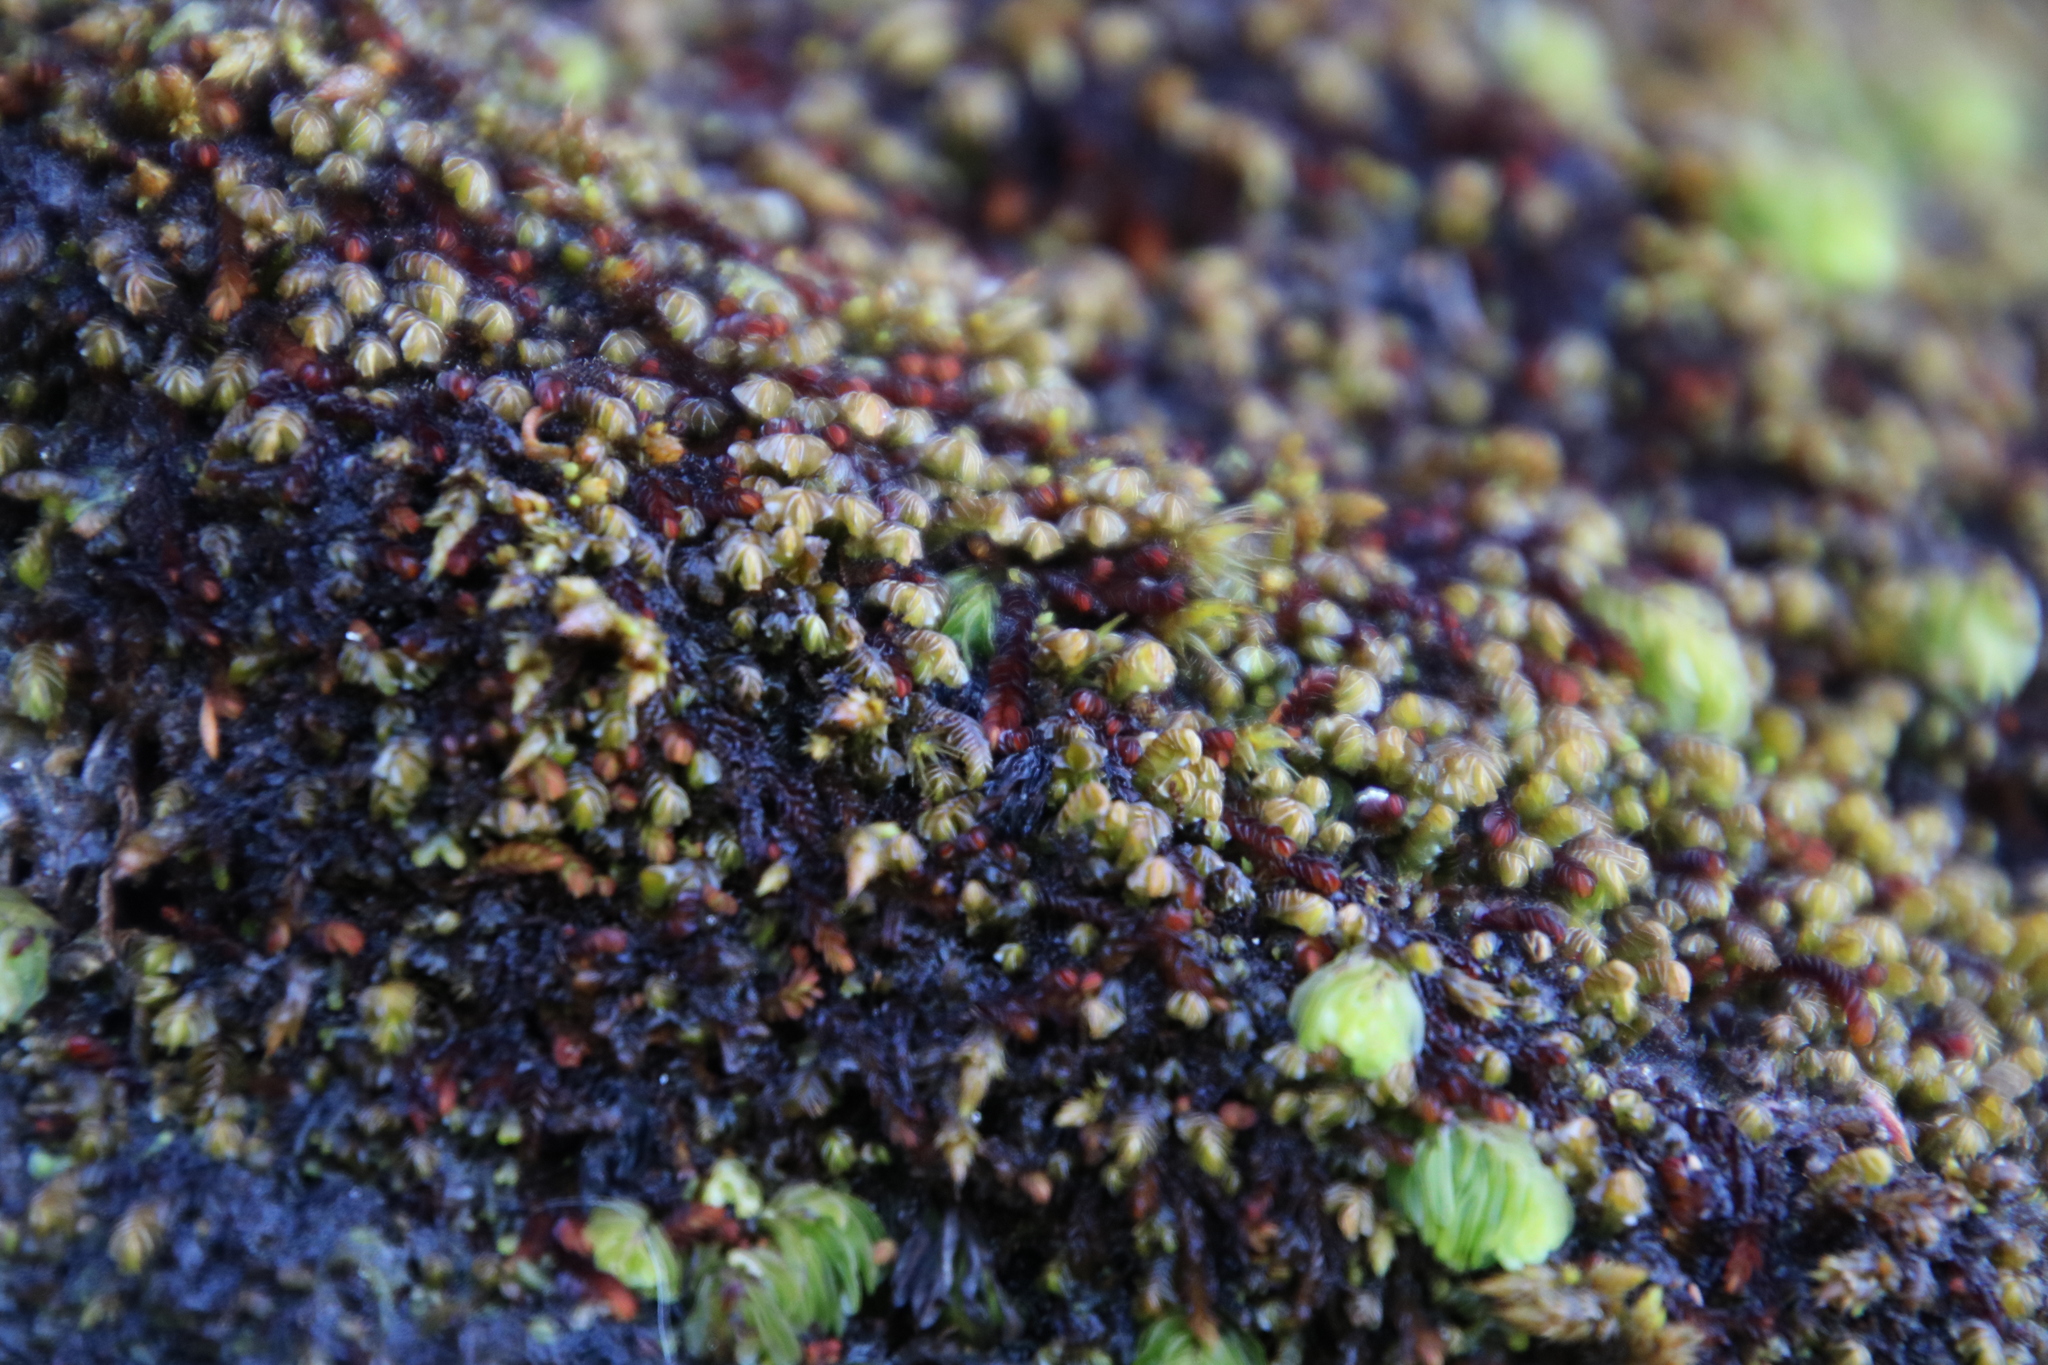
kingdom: Plantae
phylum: Marchantiophyta
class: Jungermanniopsida
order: Jungermanniales
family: Adelanthaceae
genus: Syzygiella
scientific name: Syzygiella colorata
